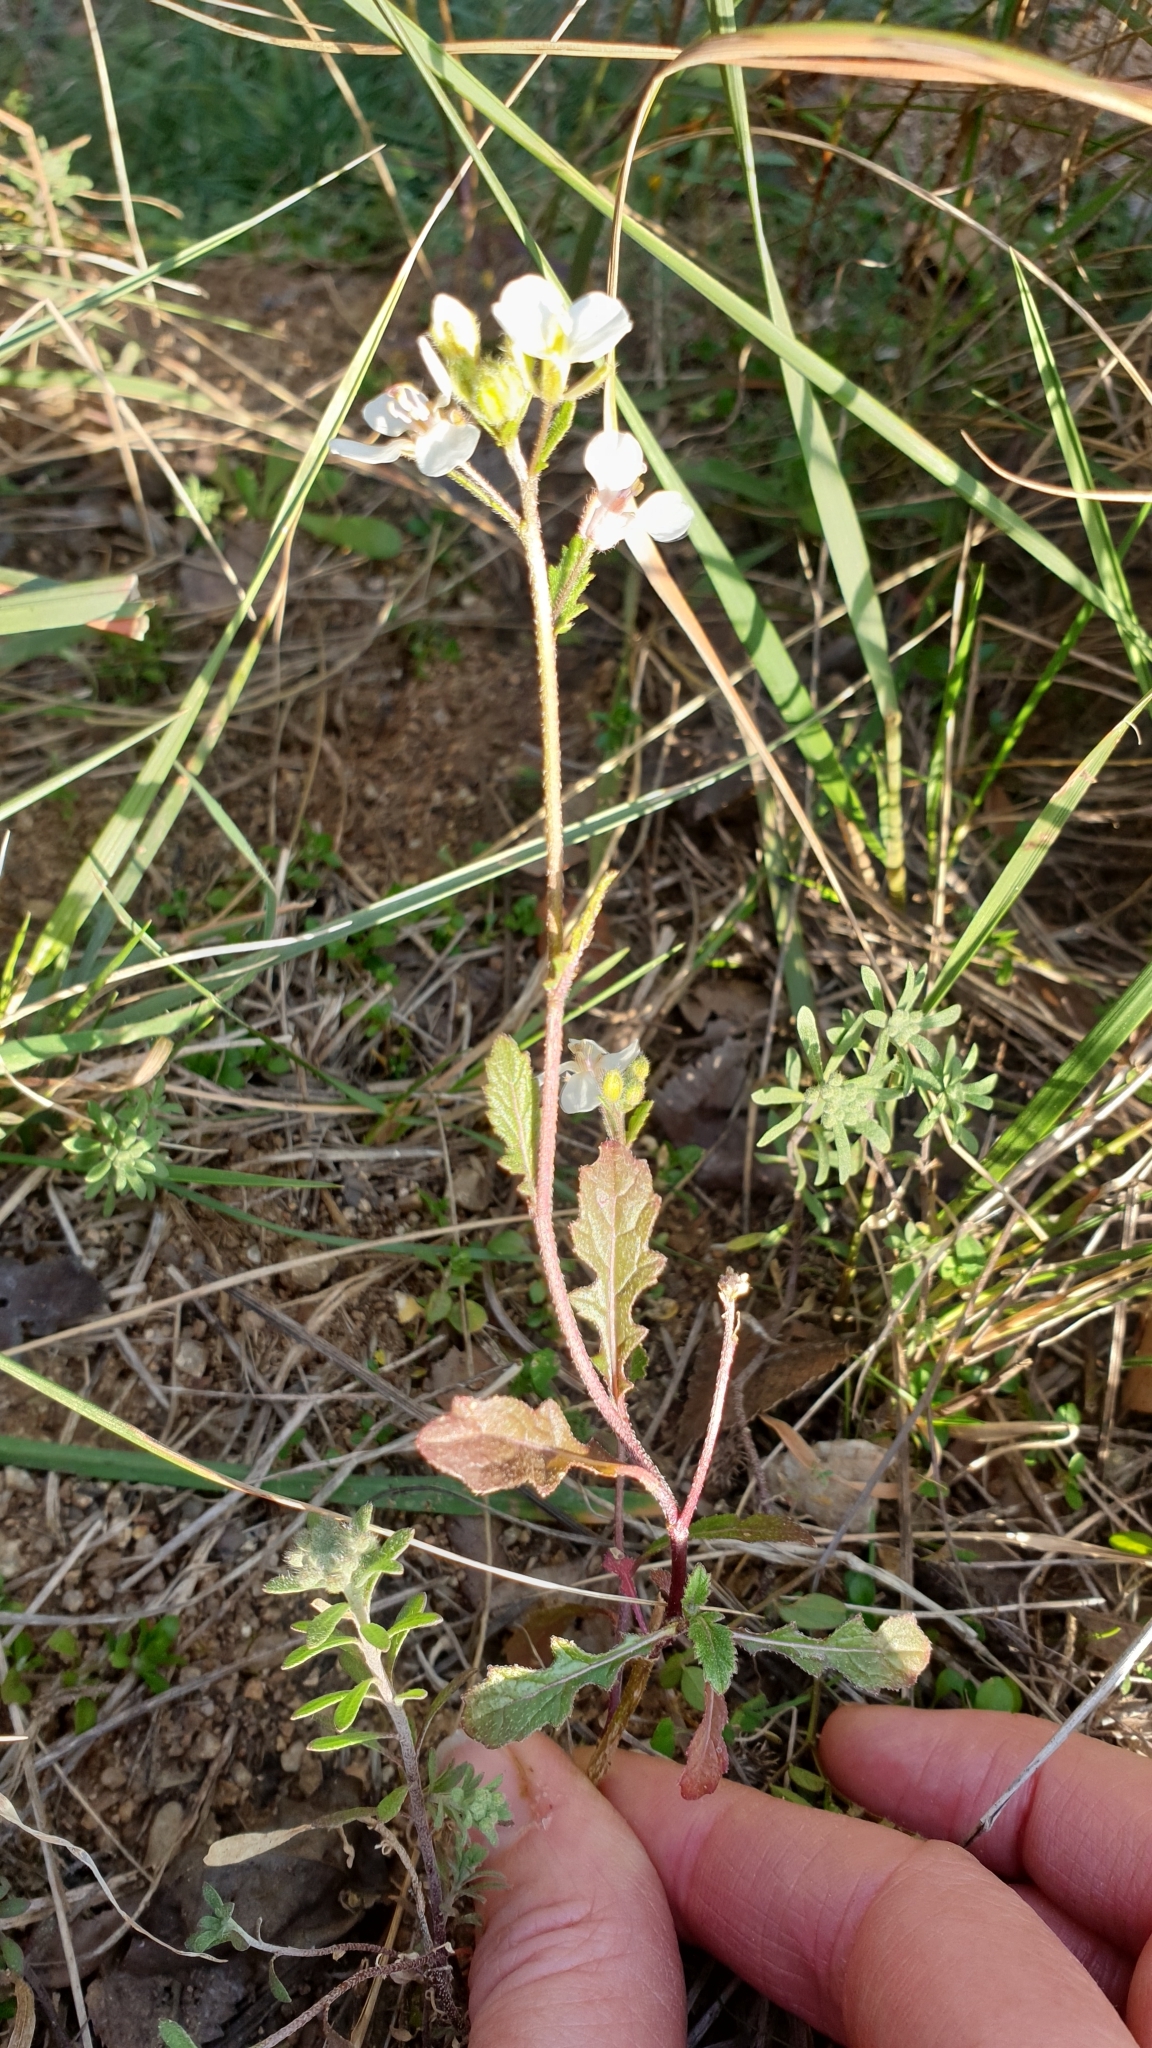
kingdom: Plantae
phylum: Tracheophyta
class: Magnoliopsida
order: Brassicales
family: Brassicaceae
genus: Diplotaxis
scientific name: Diplotaxis erucoides
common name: White rocket
